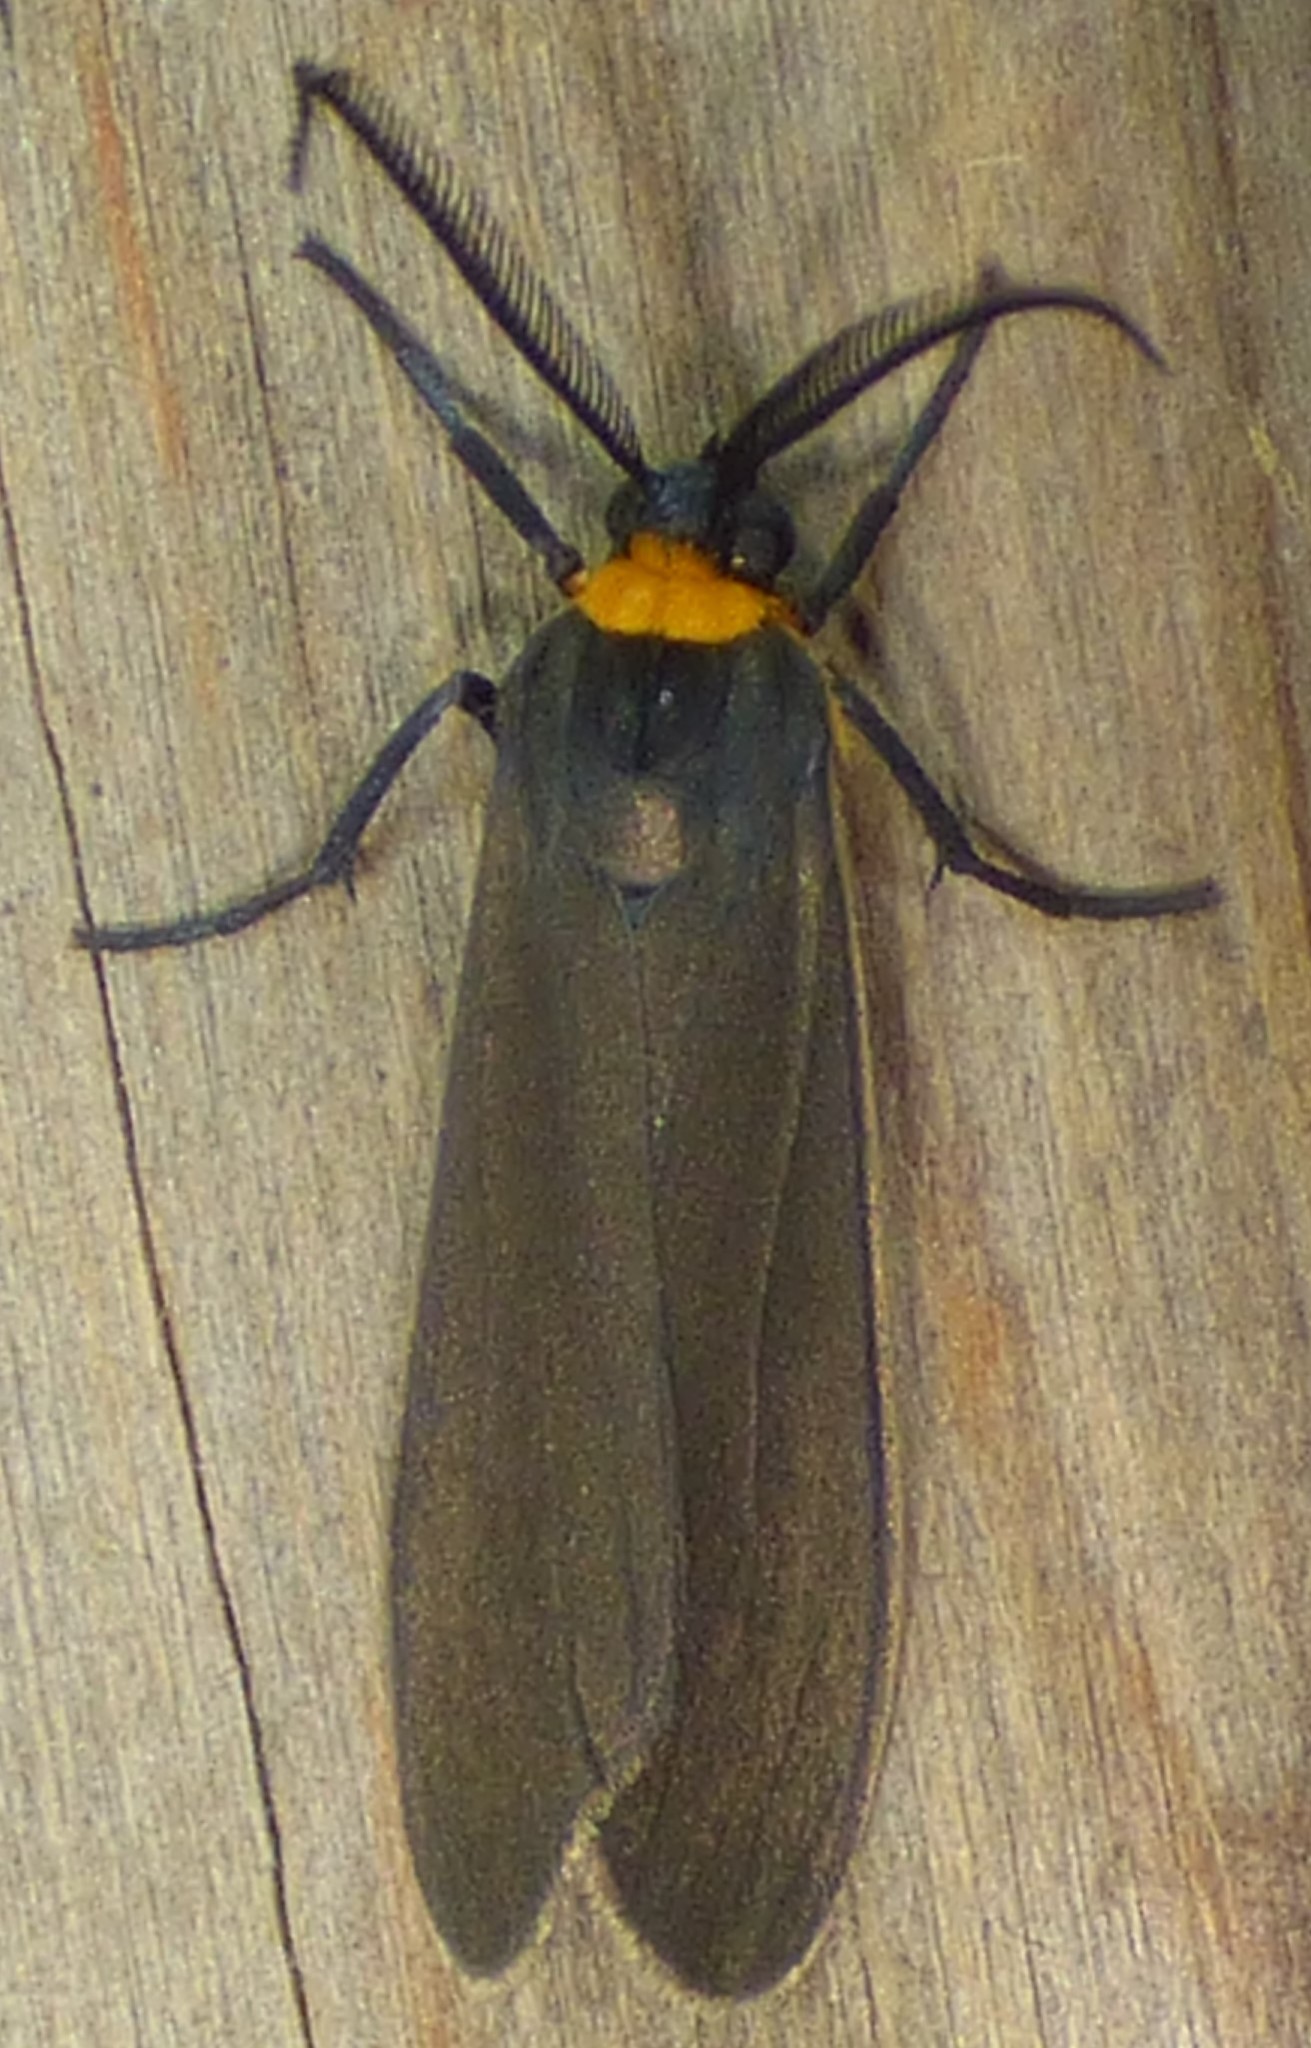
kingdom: Animalia
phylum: Arthropoda
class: Insecta
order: Lepidoptera
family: Erebidae
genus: Cisseps
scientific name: Cisseps fulvicollis
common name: Yellow-collared scape moth
